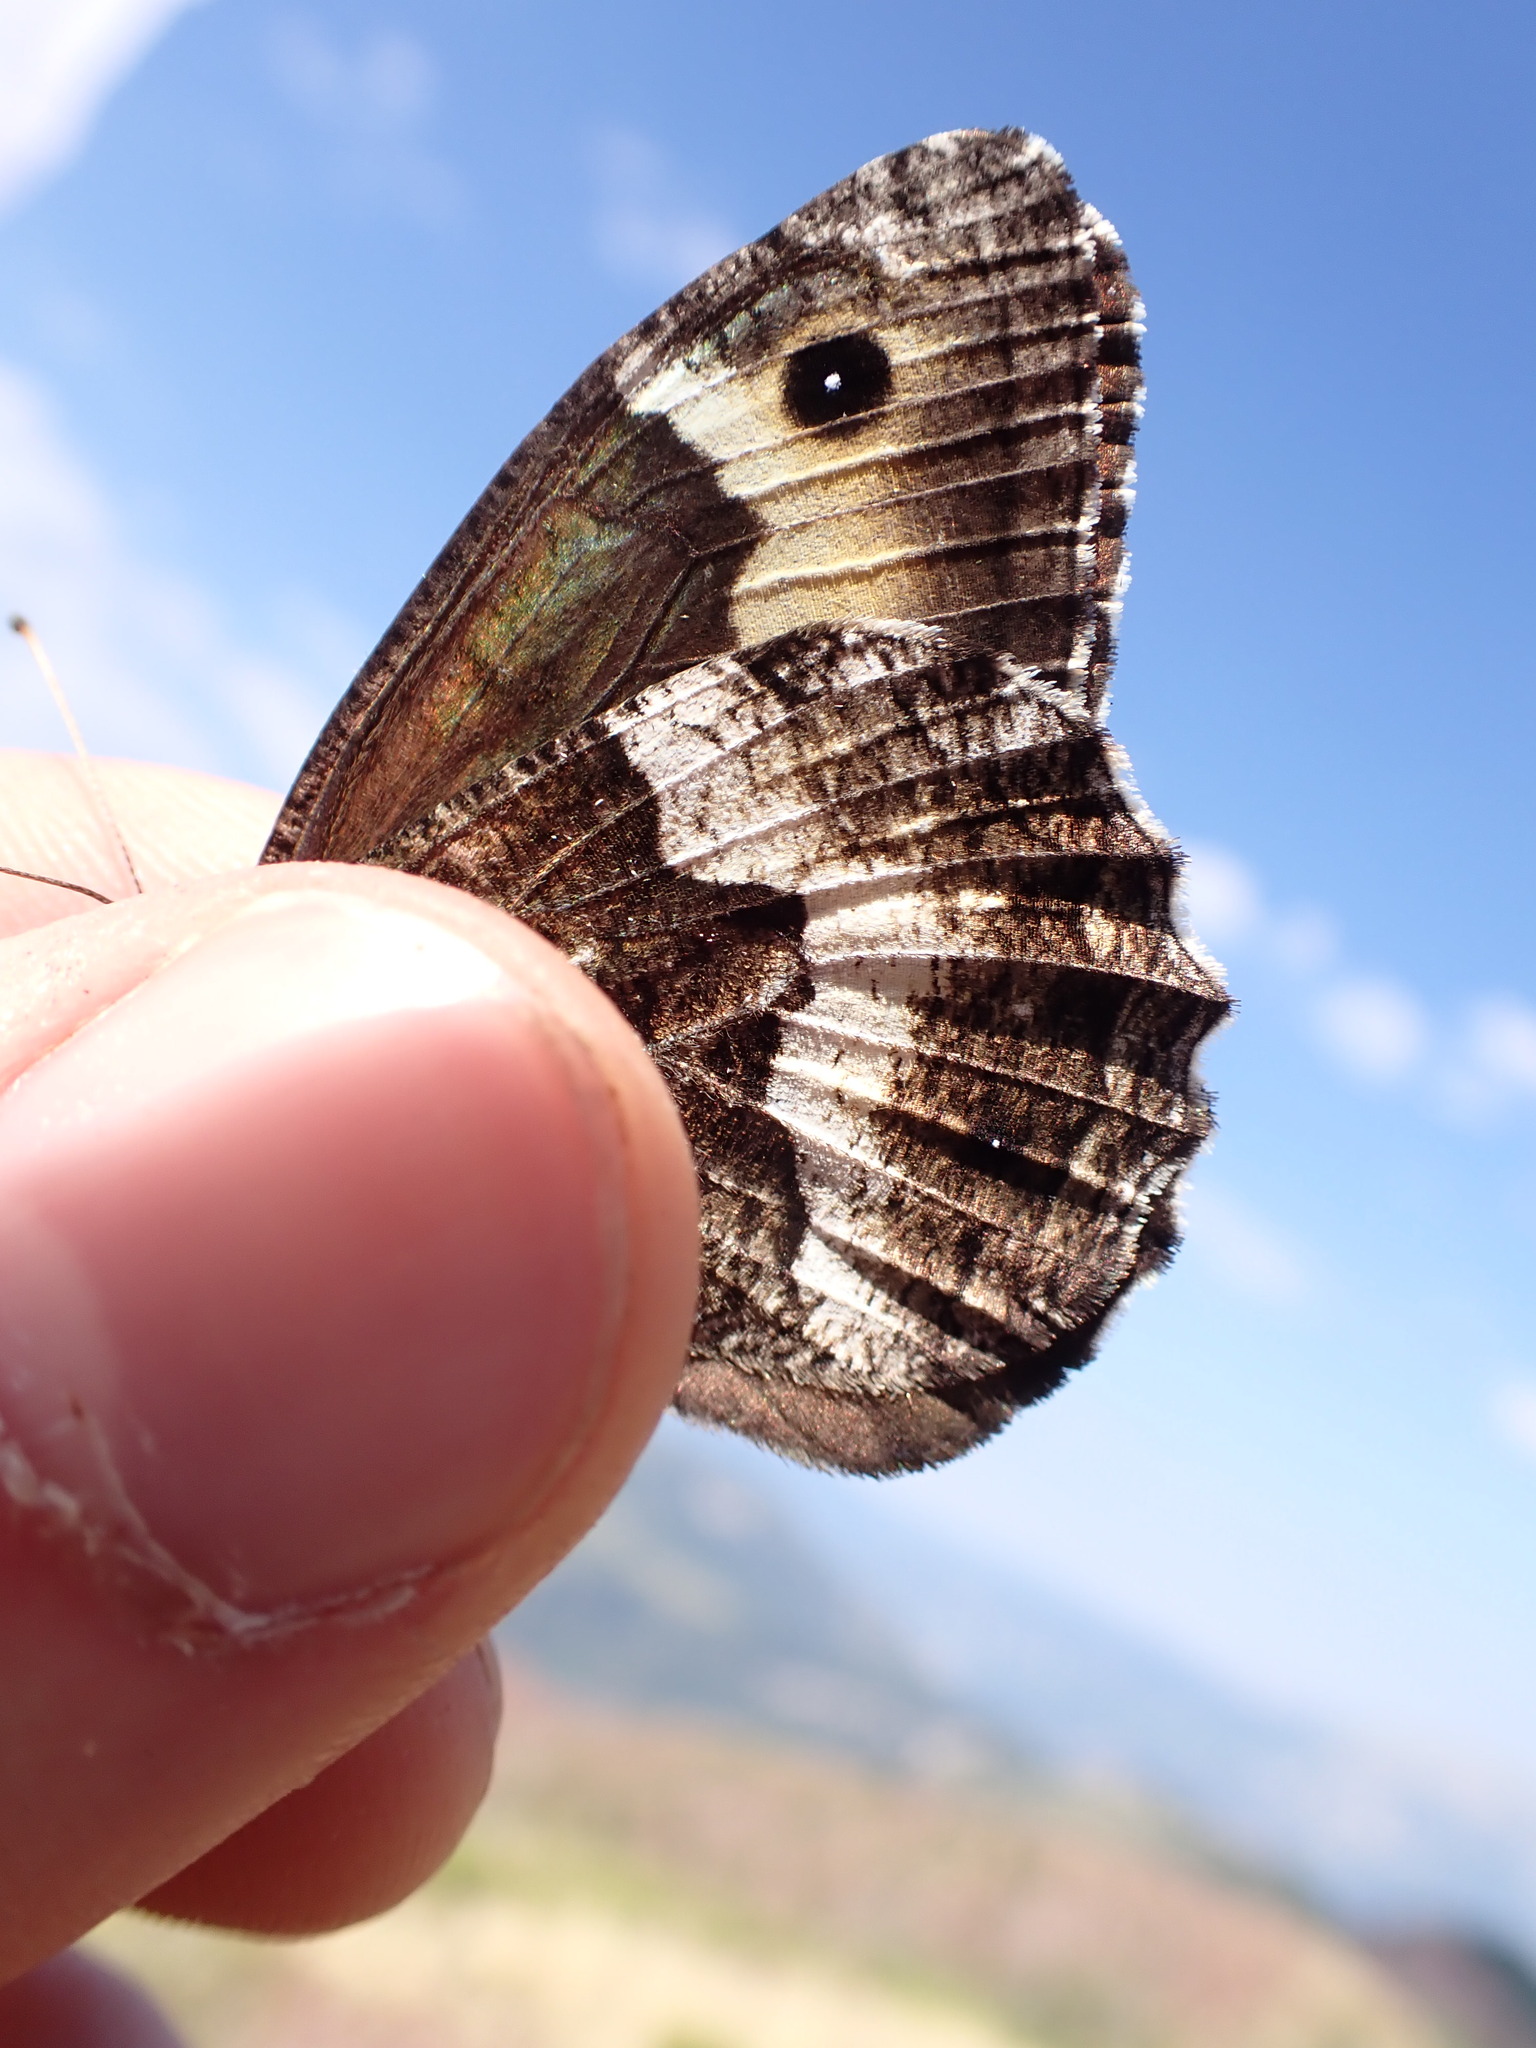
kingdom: Animalia
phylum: Arthropoda
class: Insecta
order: Lepidoptera
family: Nymphalidae
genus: Hipparchia
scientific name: Hipparchia fagi
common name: Woodland grayling
